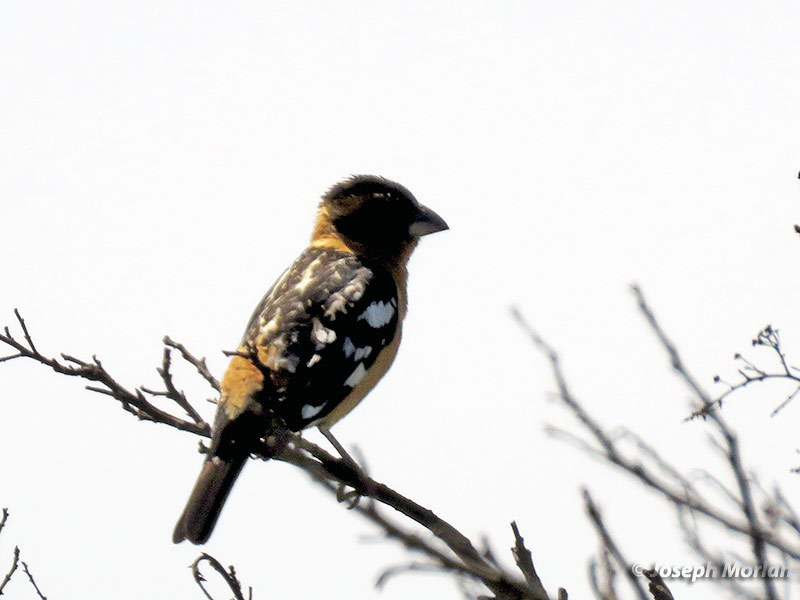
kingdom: Animalia
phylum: Chordata
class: Aves
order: Passeriformes
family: Cardinalidae
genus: Pheucticus
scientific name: Pheucticus melanocephalus
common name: Black-headed grosbeak
